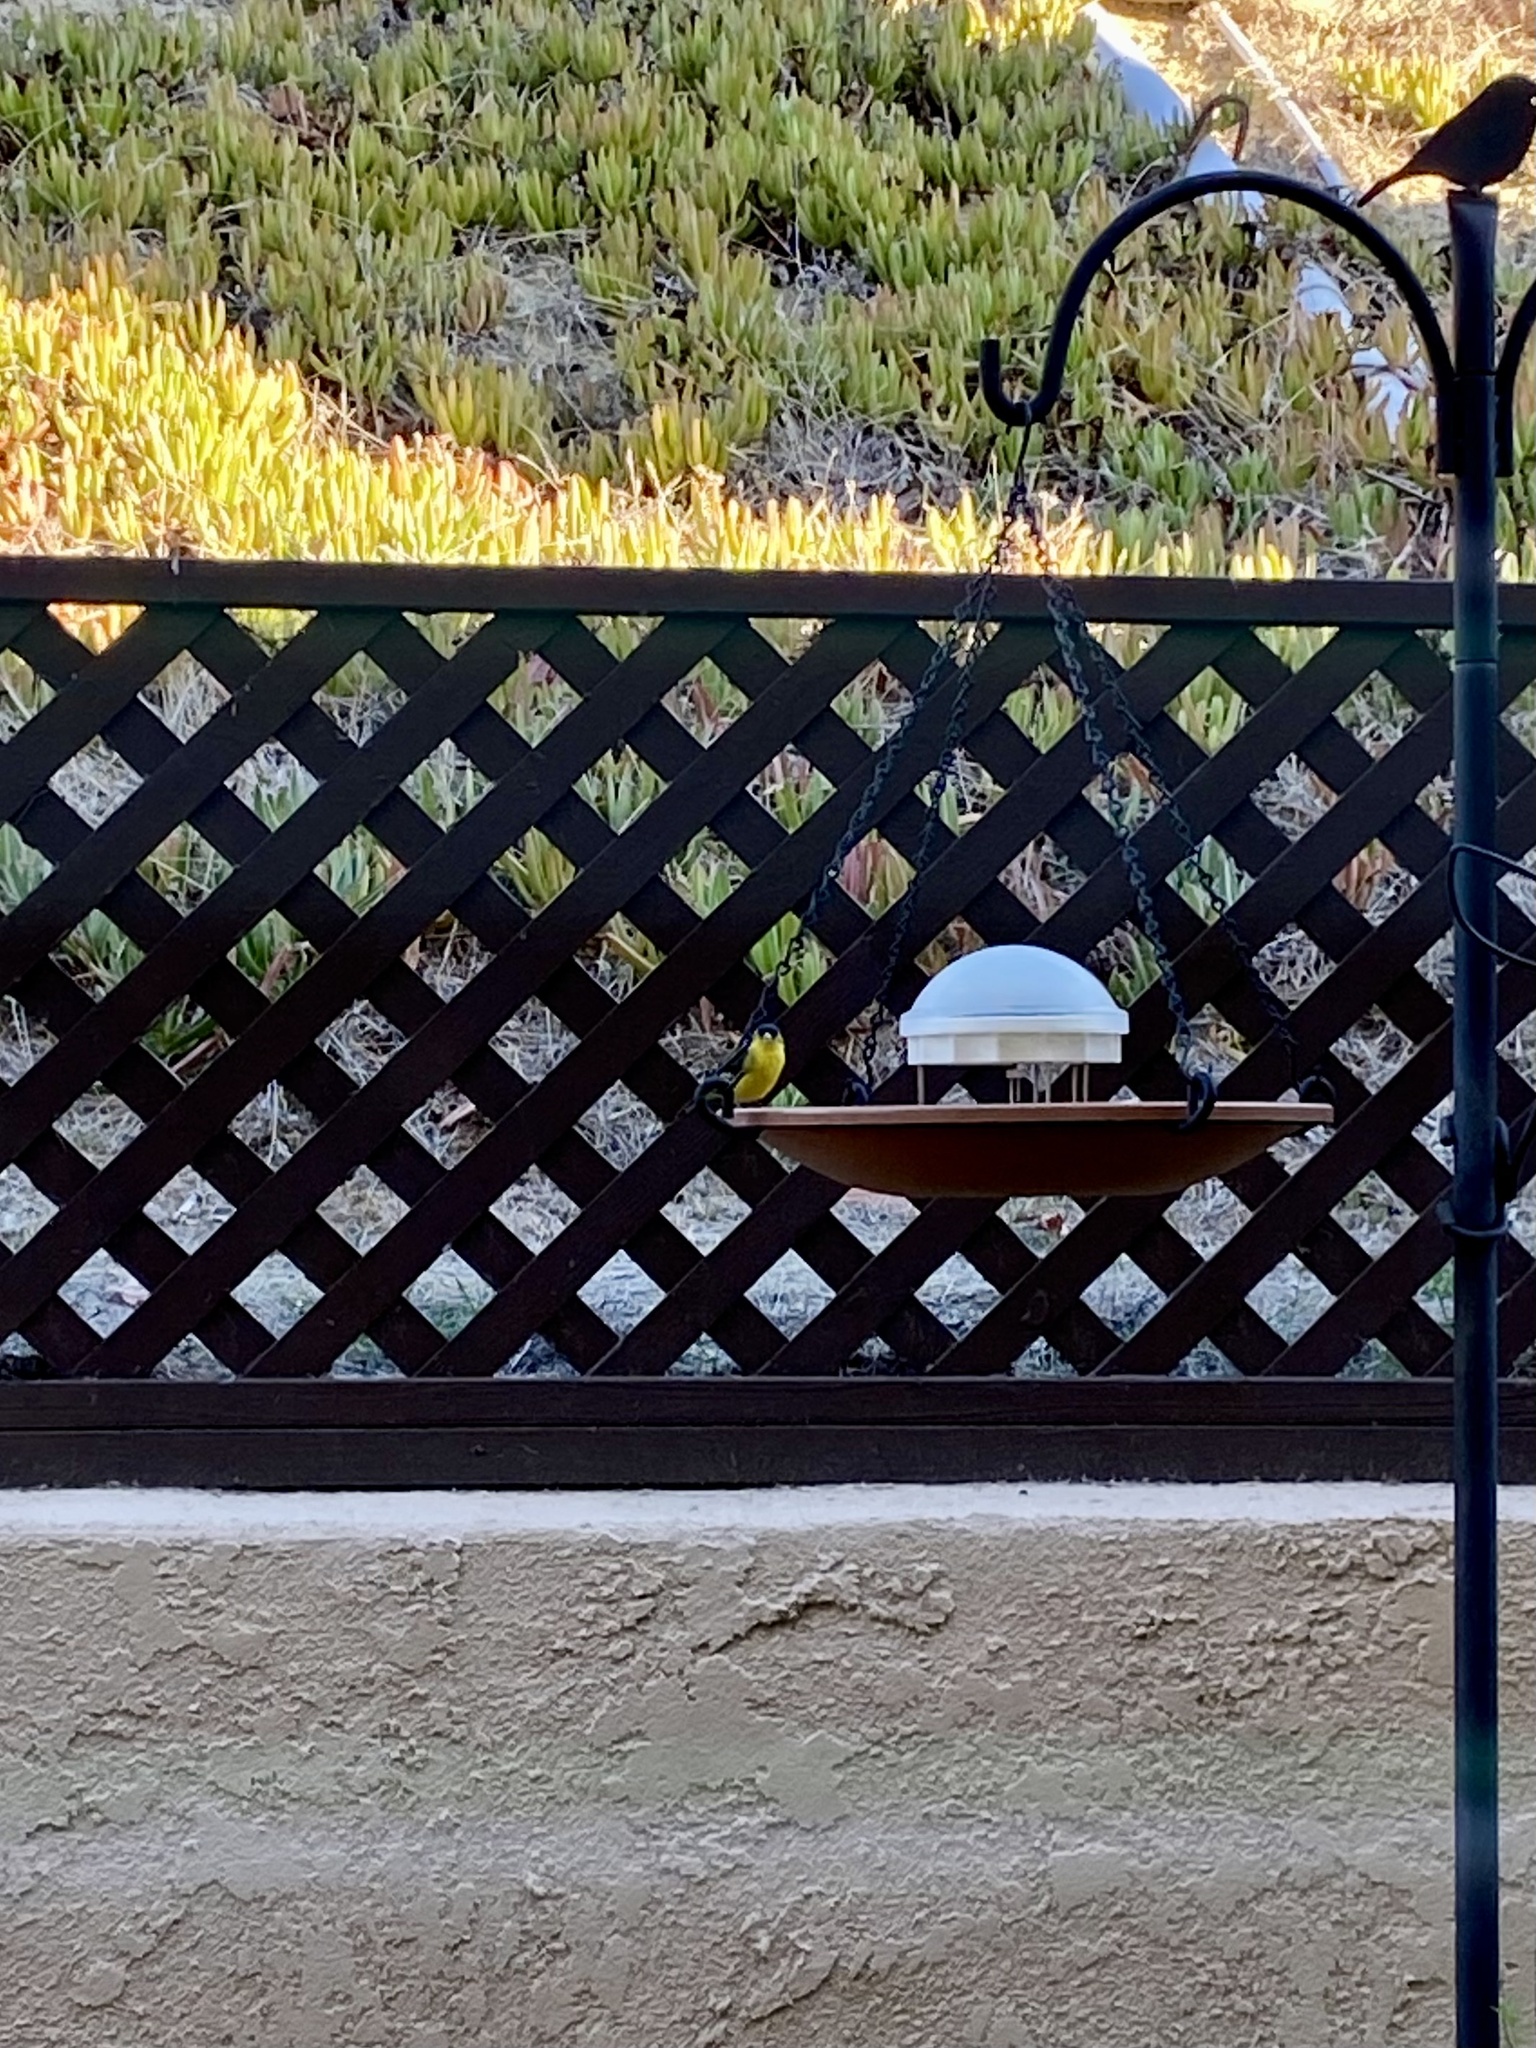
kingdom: Animalia
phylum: Chordata
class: Aves
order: Passeriformes
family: Fringillidae
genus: Spinus
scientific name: Spinus psaltria
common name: Lesser goldfinch
